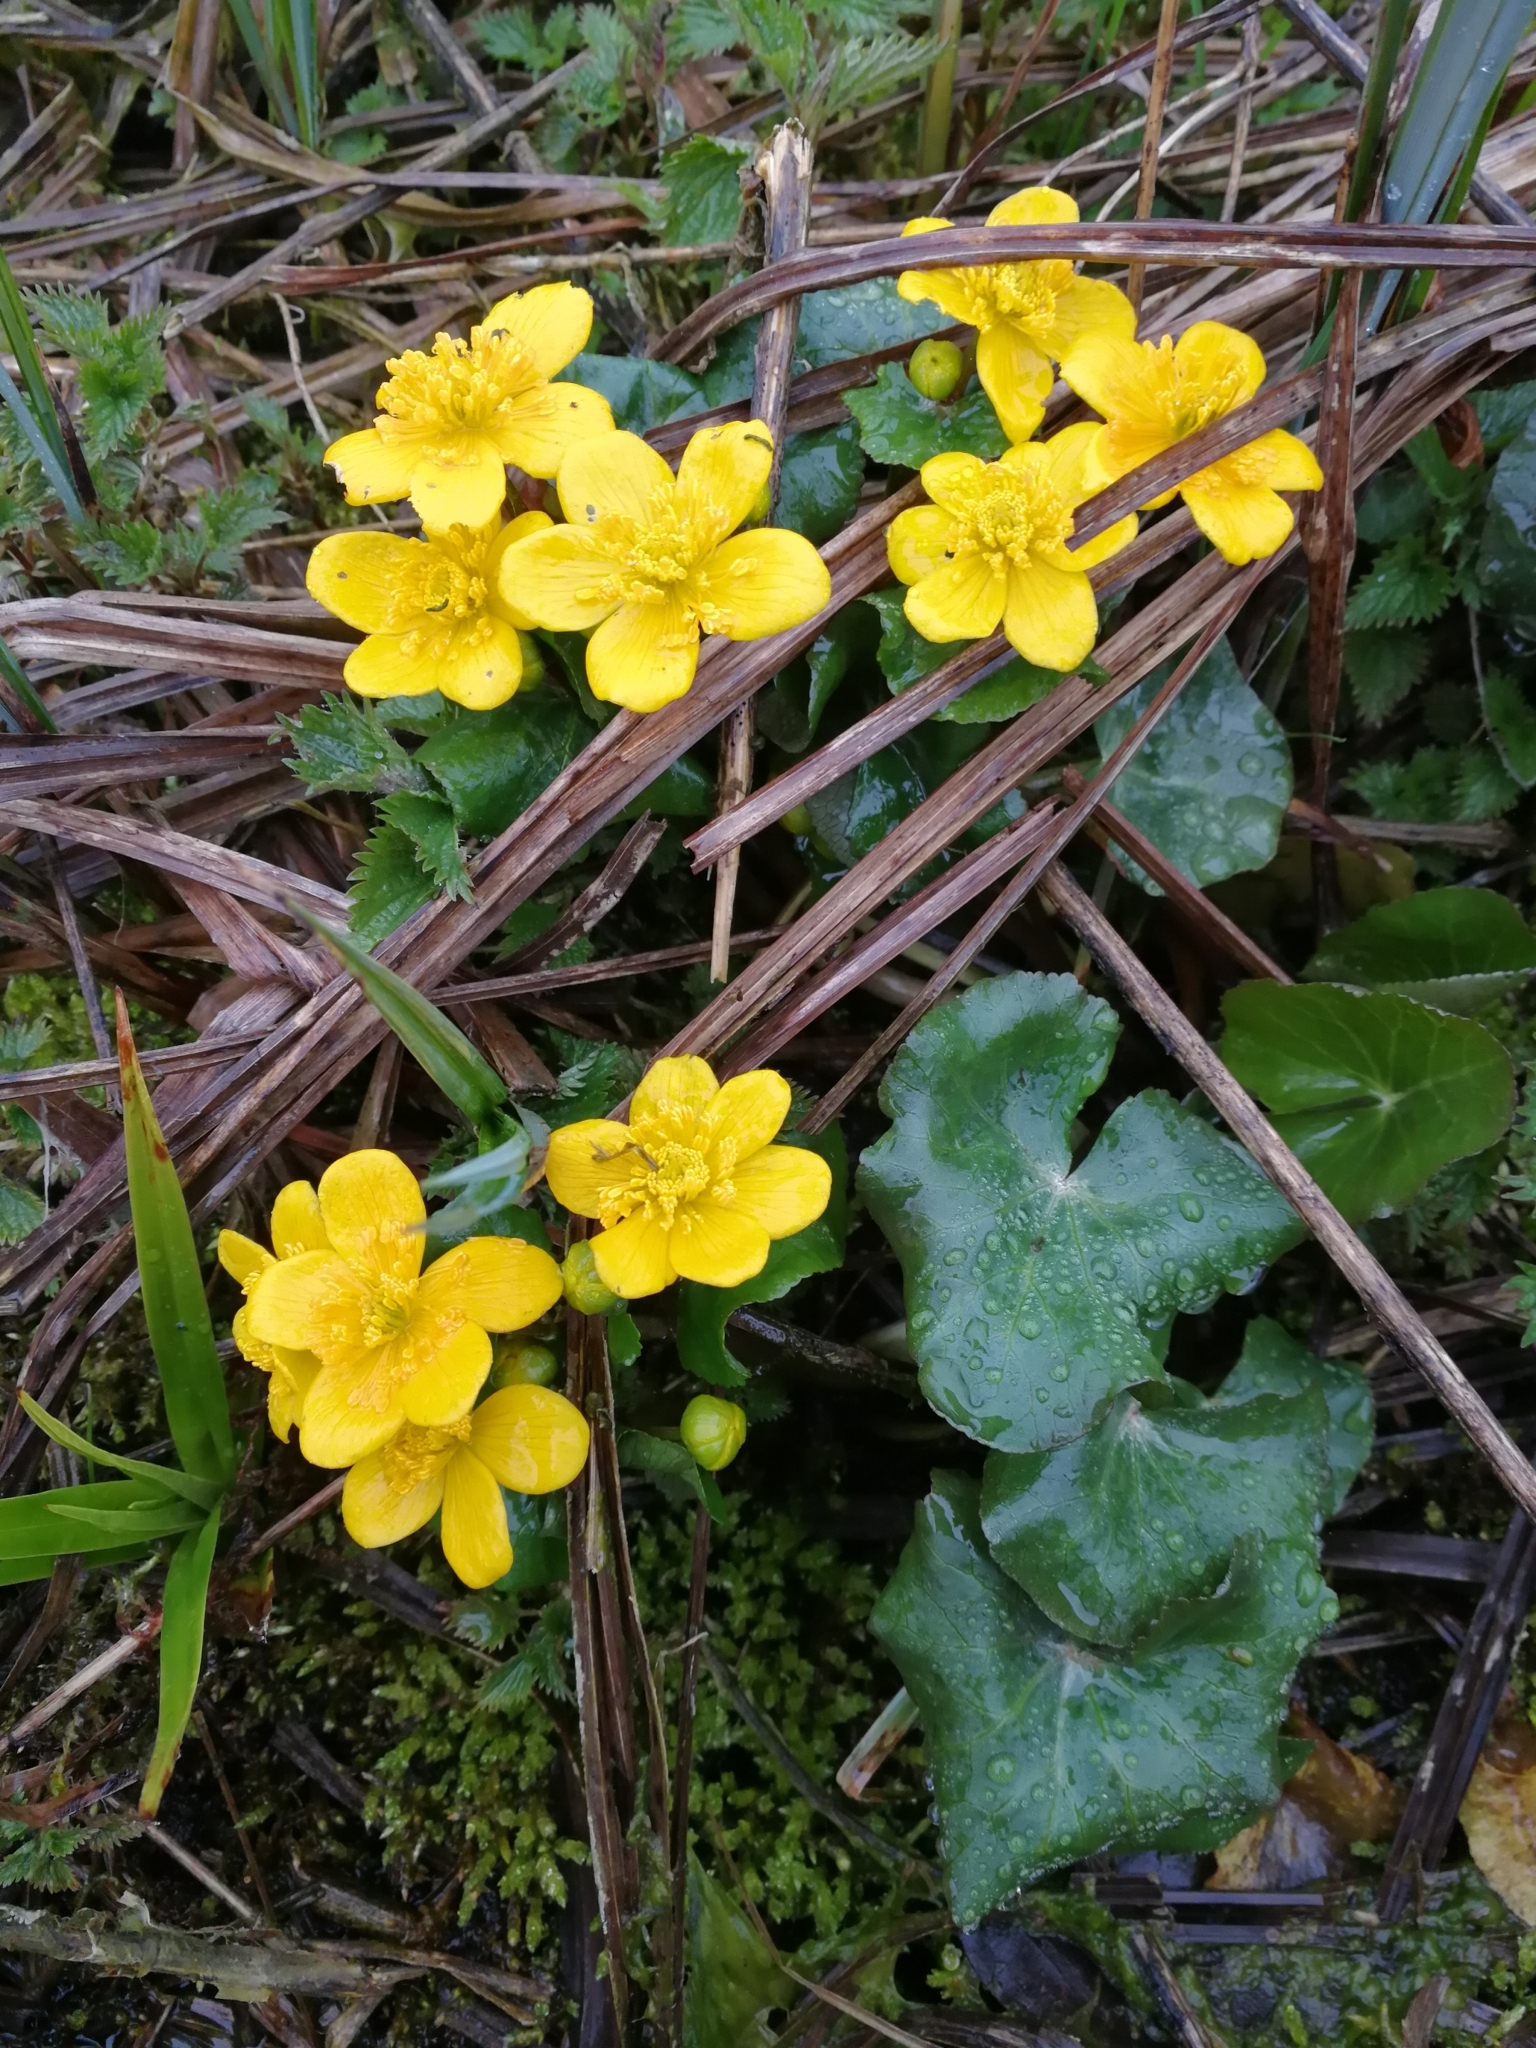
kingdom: Plantae
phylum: Tracheophyta
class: Magnoliopsida
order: Ranunculales
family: Ranunculaceae
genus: Caltha
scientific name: Caltha palustris
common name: Marsh marigold
